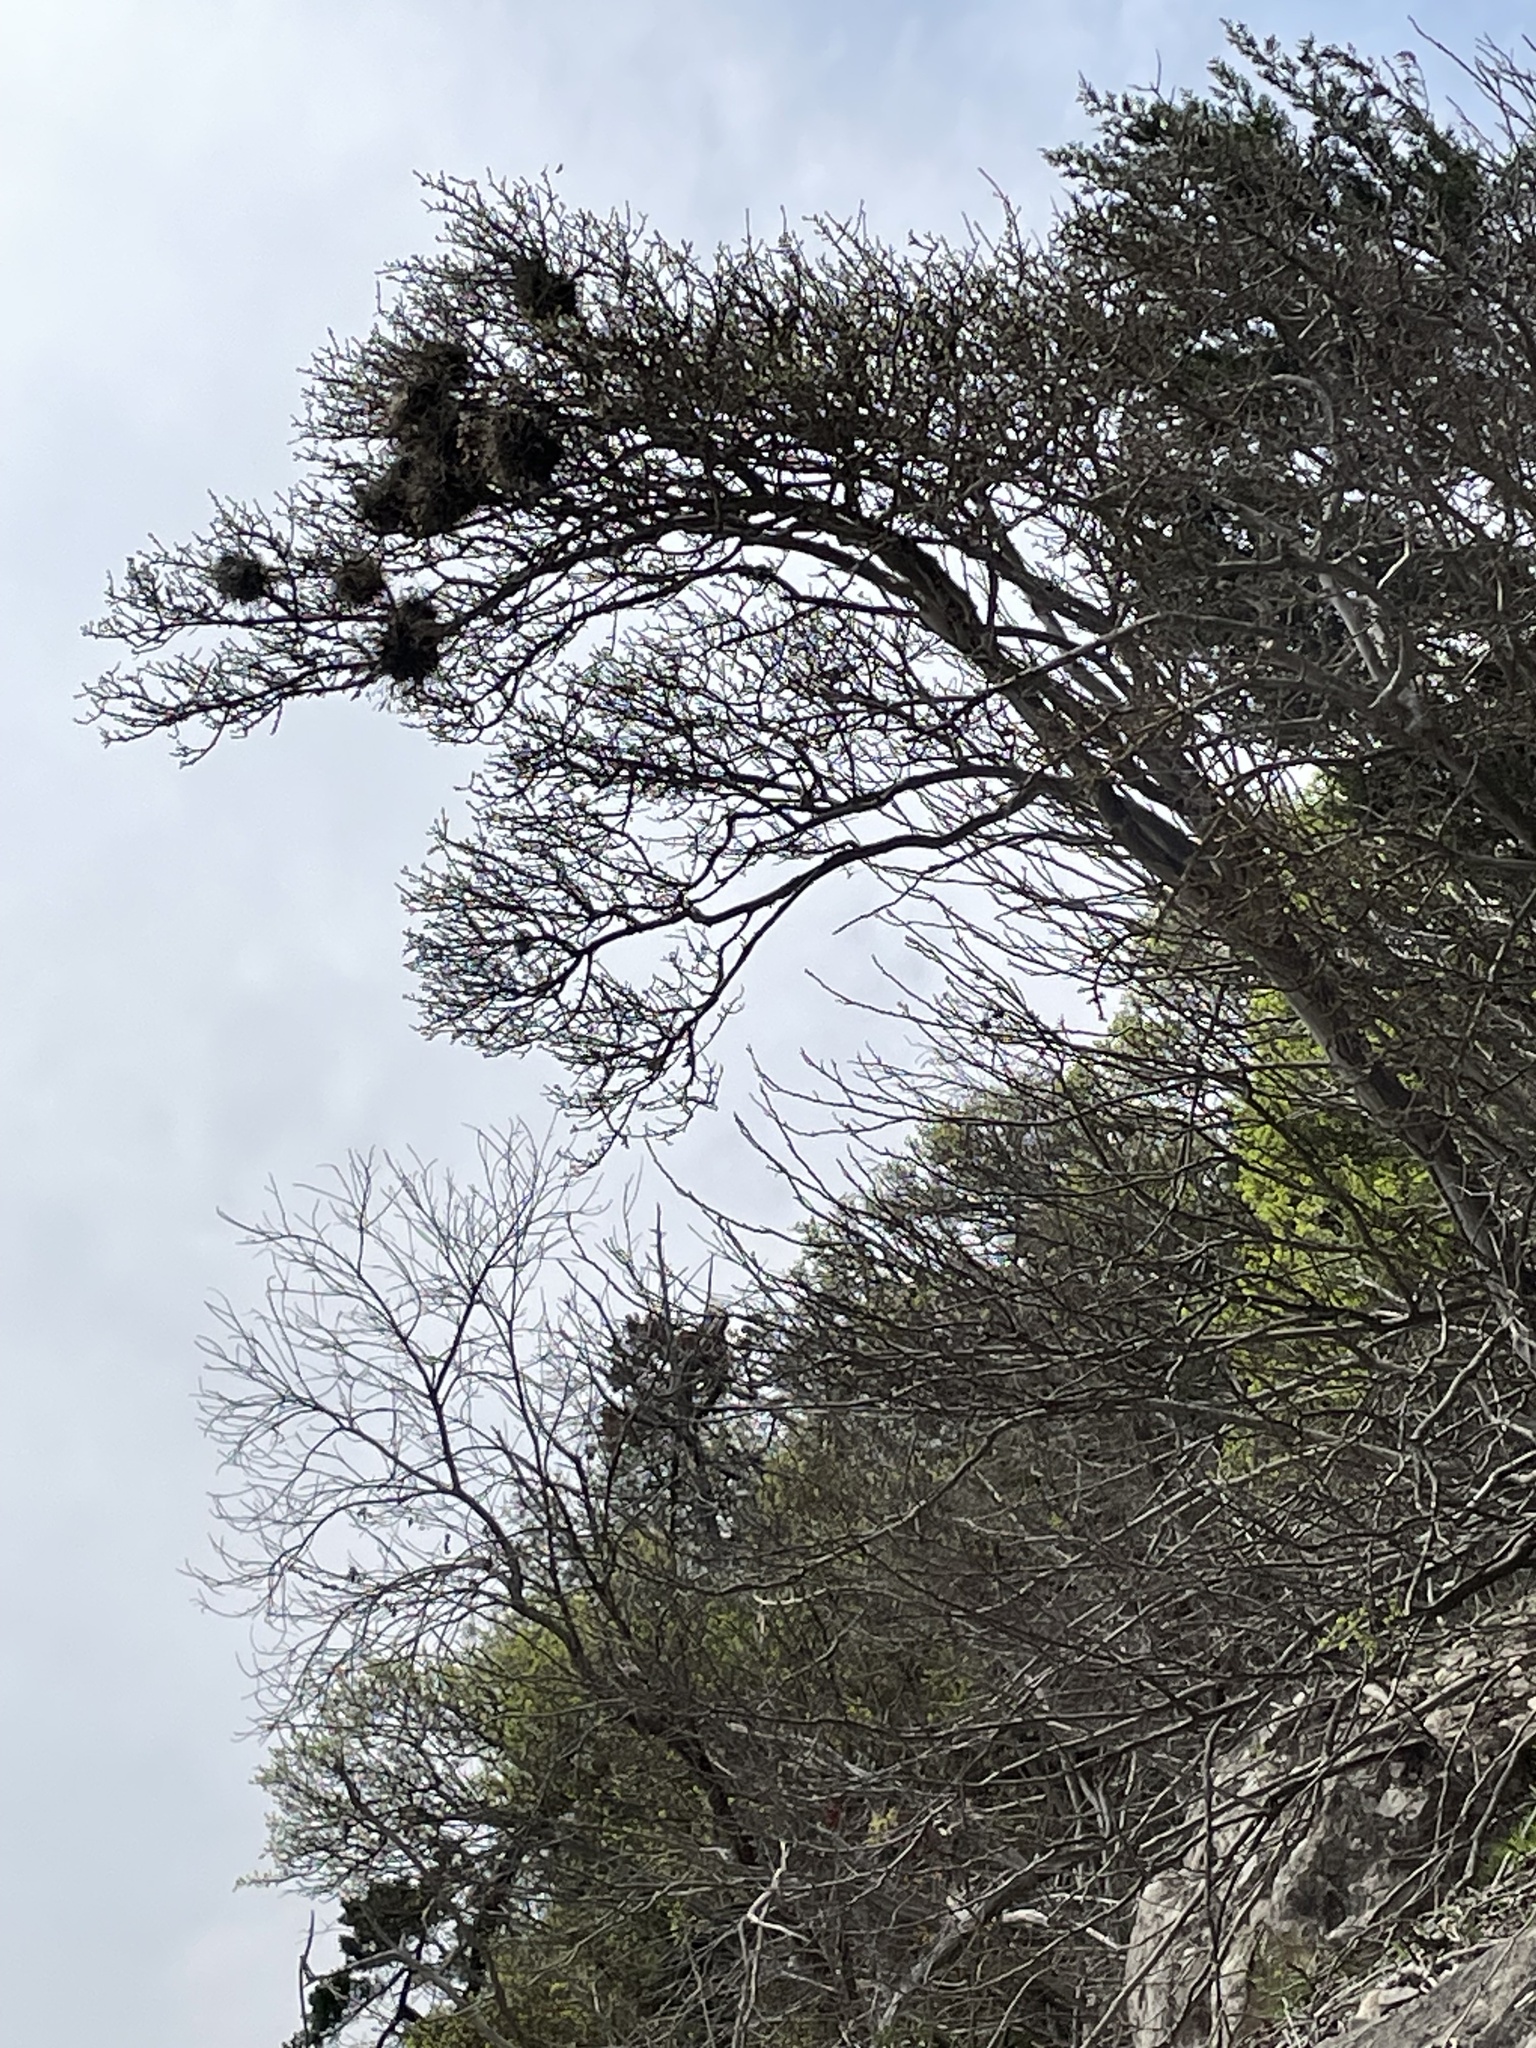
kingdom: Plantae
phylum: Tracheophyta
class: Magnoliopsida
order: Ericales
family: Ebenaceae
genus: Diospyros
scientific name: Diospyros texana
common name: Texas persimmon
